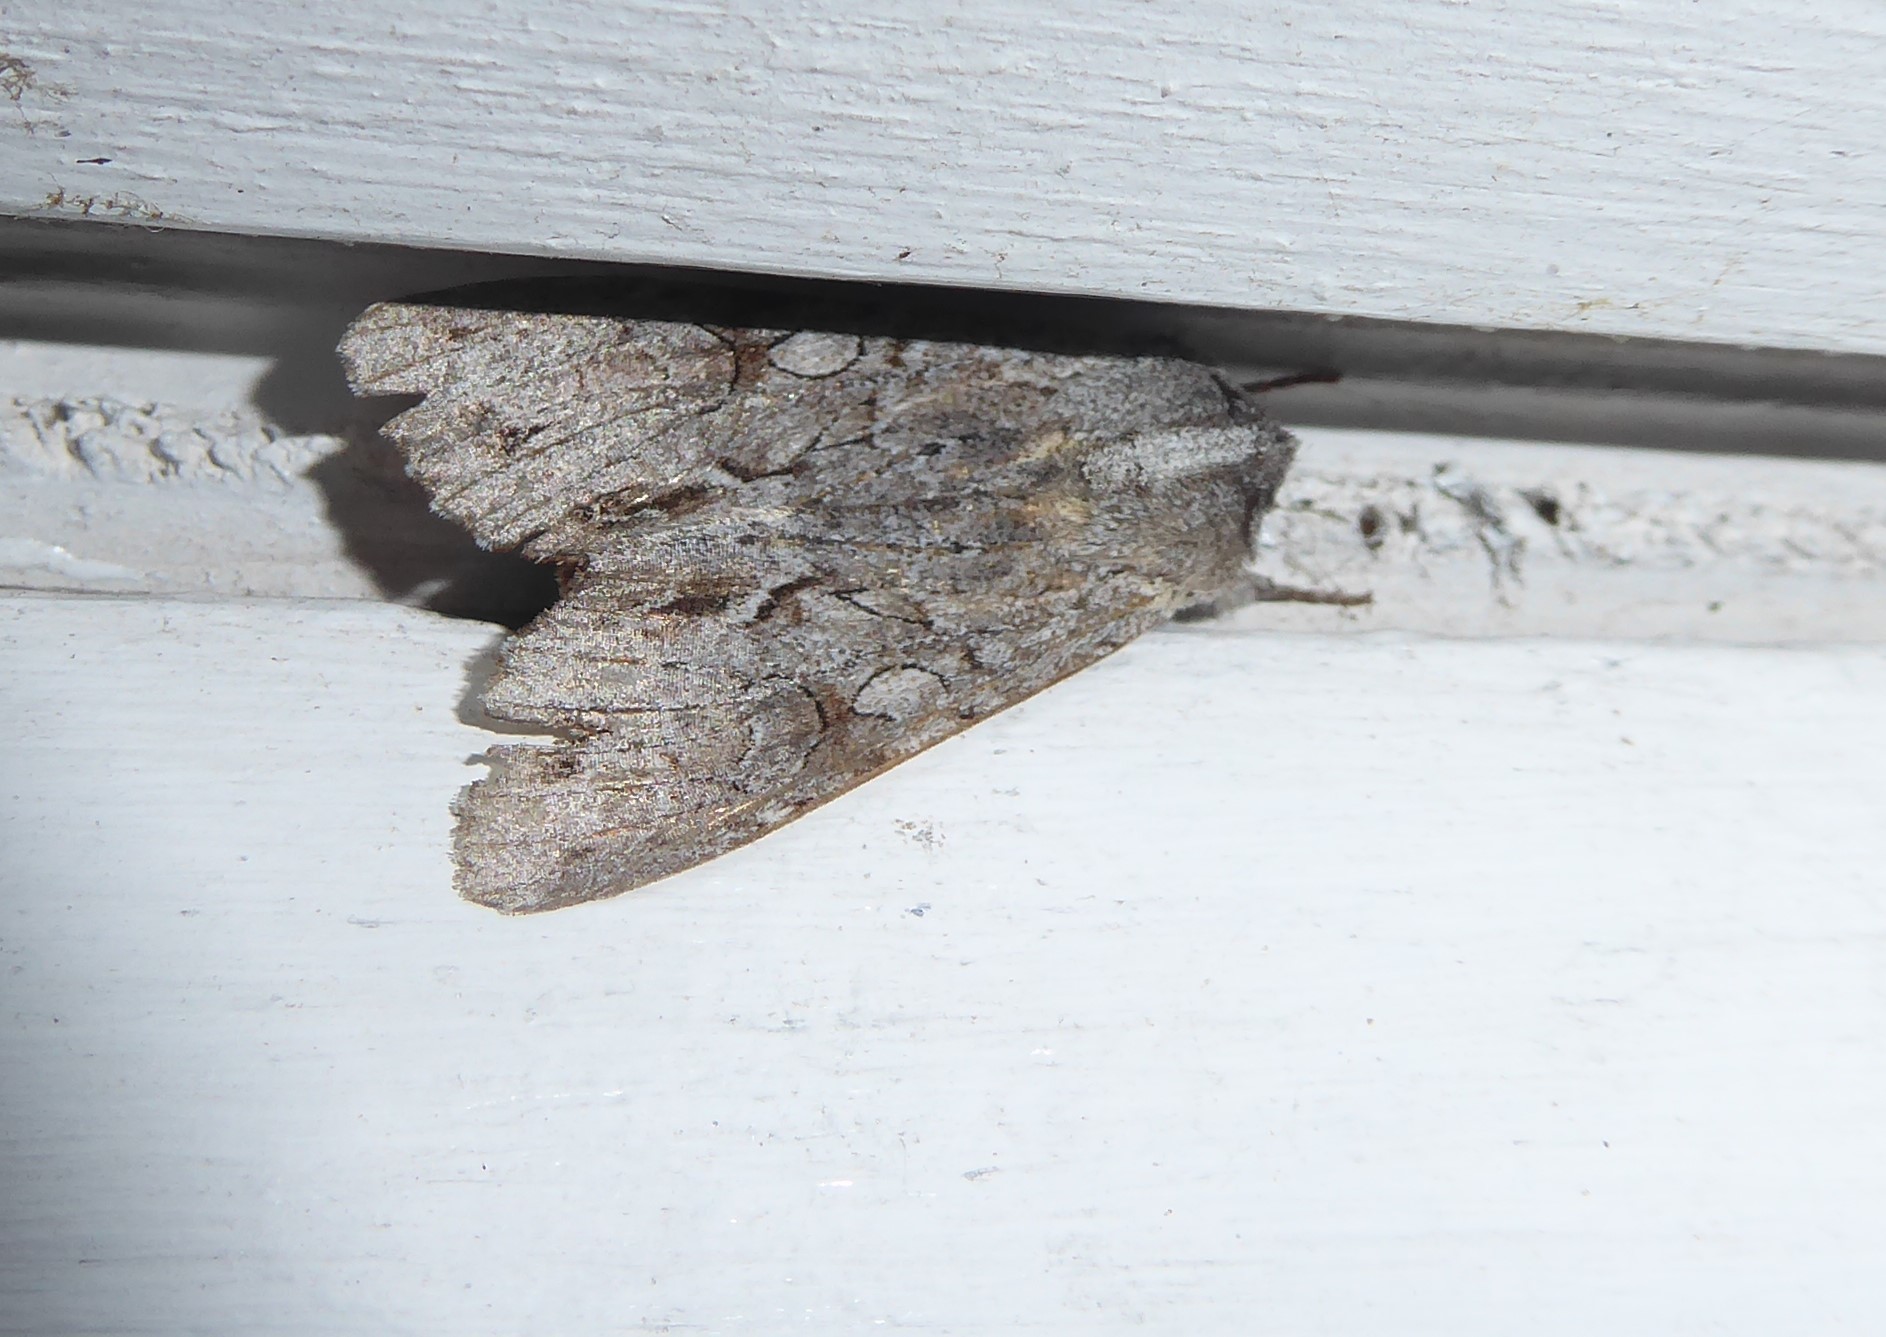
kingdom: Animalia
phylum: Arthropoda
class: Insecta
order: Lepidoptera
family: Noctuidae
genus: Ichneutica
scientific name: Ichneutica
